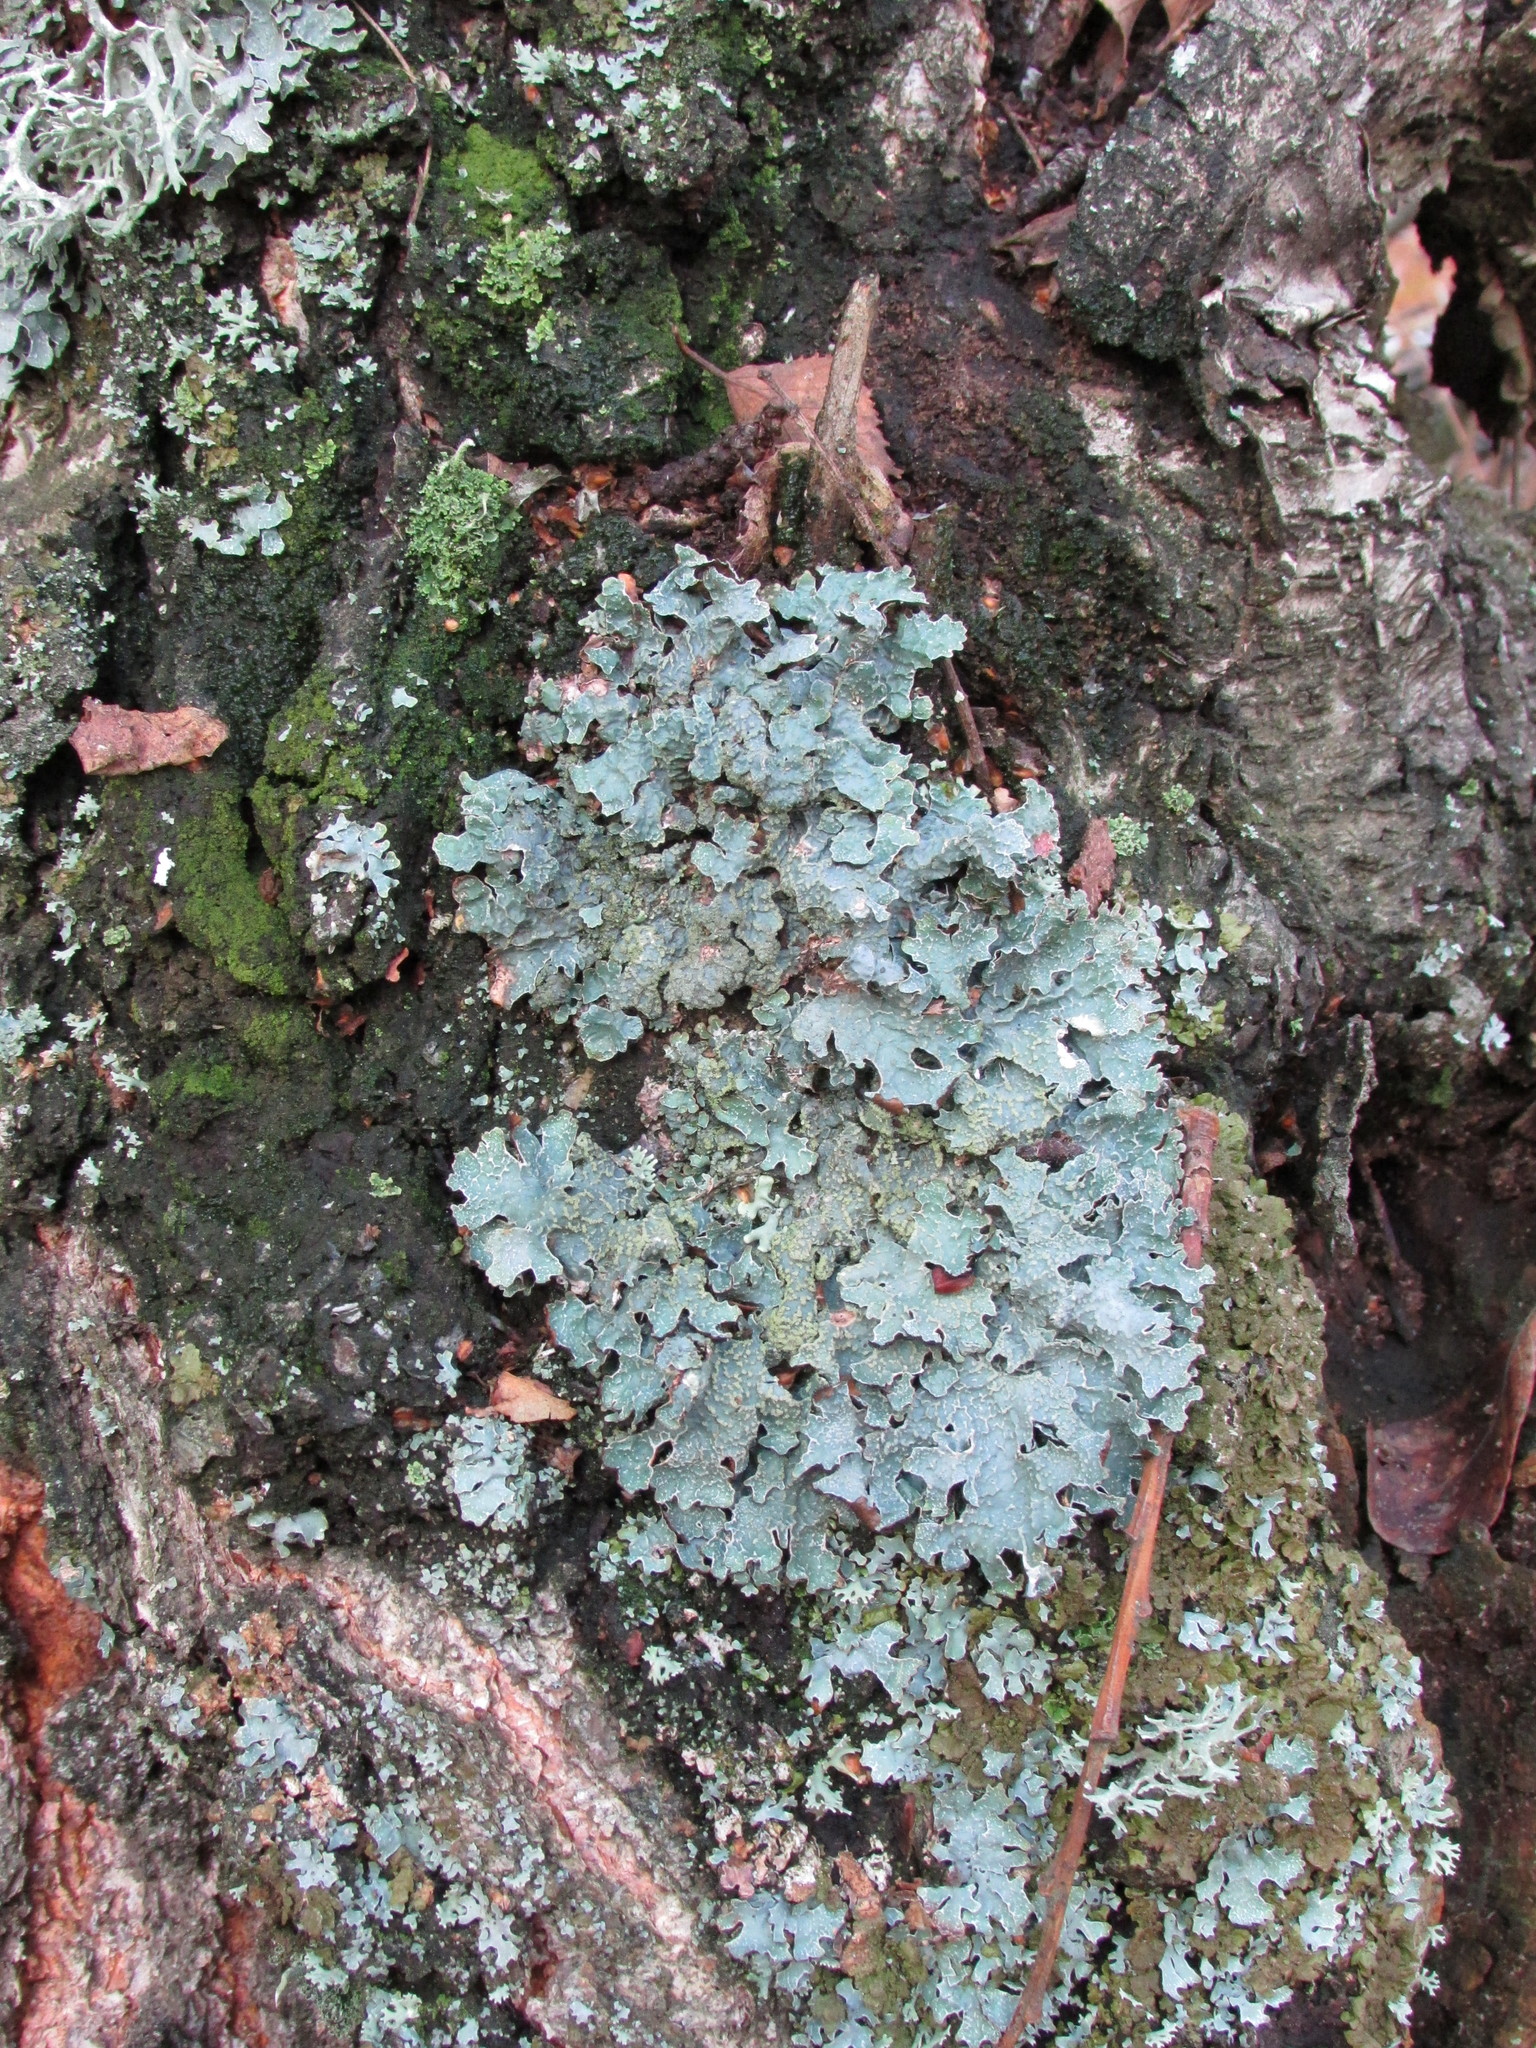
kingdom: Fungi
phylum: Ascomycota
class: Lecanoromycetes
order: Lecanorales
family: Parmeliaceae
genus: Parmelia
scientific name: Parmelia sulcata
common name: Netted shield lichen
